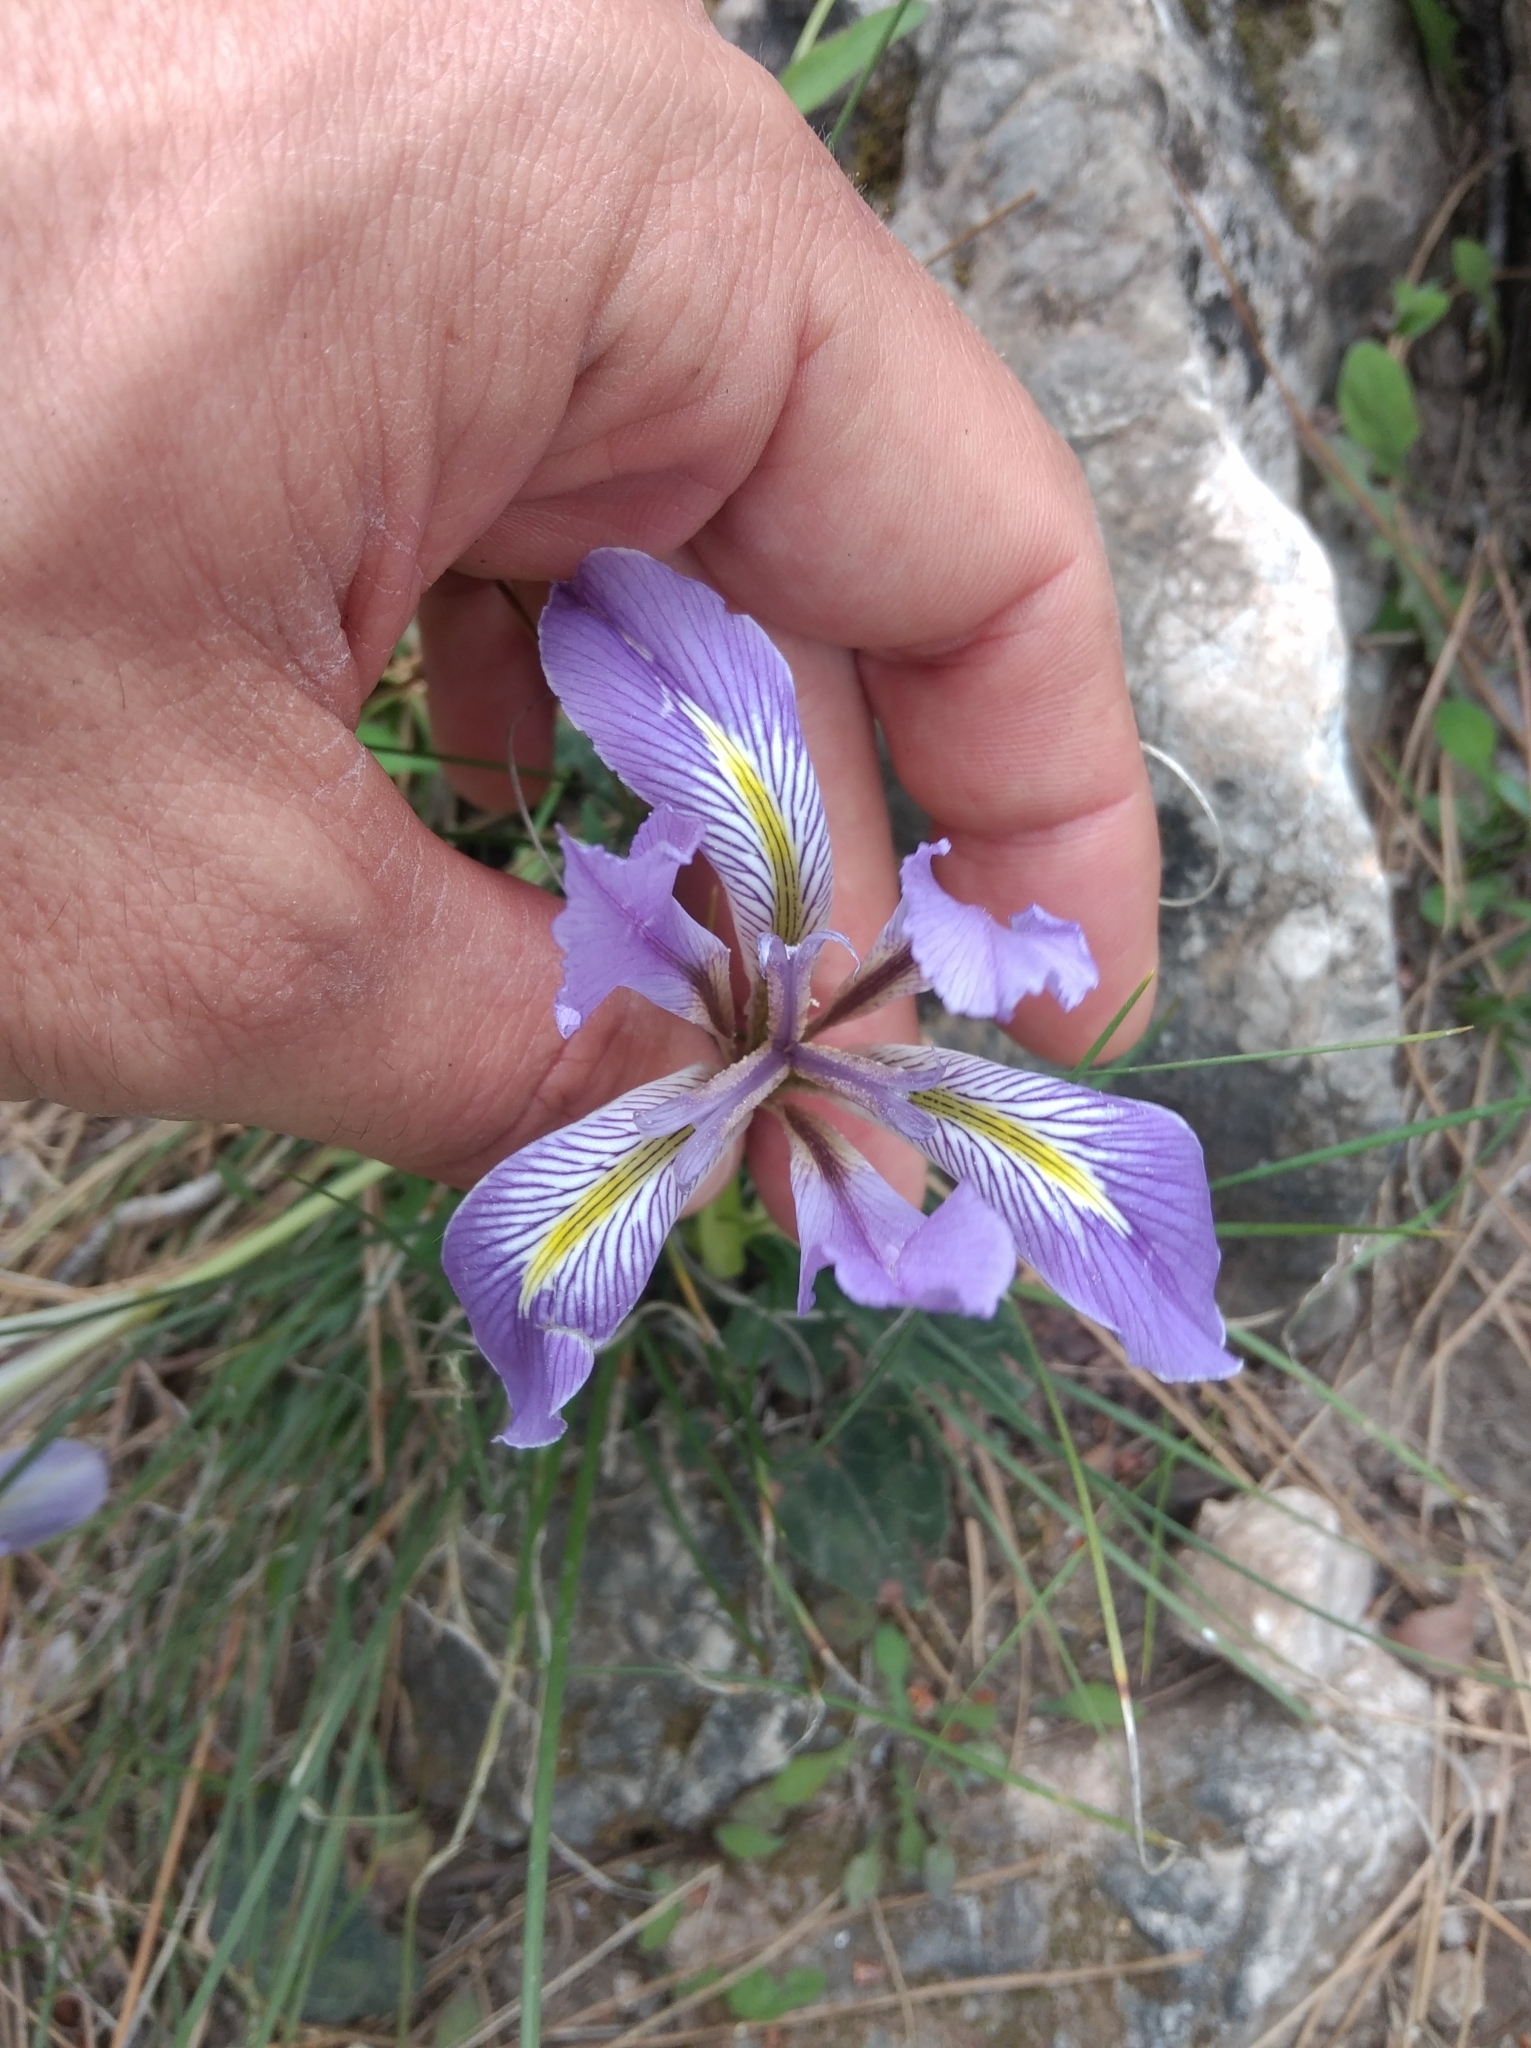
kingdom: Plantae
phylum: Tracheophyta
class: Liliopsida
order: Asparagales
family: Iridaceae
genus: Iris
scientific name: Iris unguicularis
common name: Algerian iris
